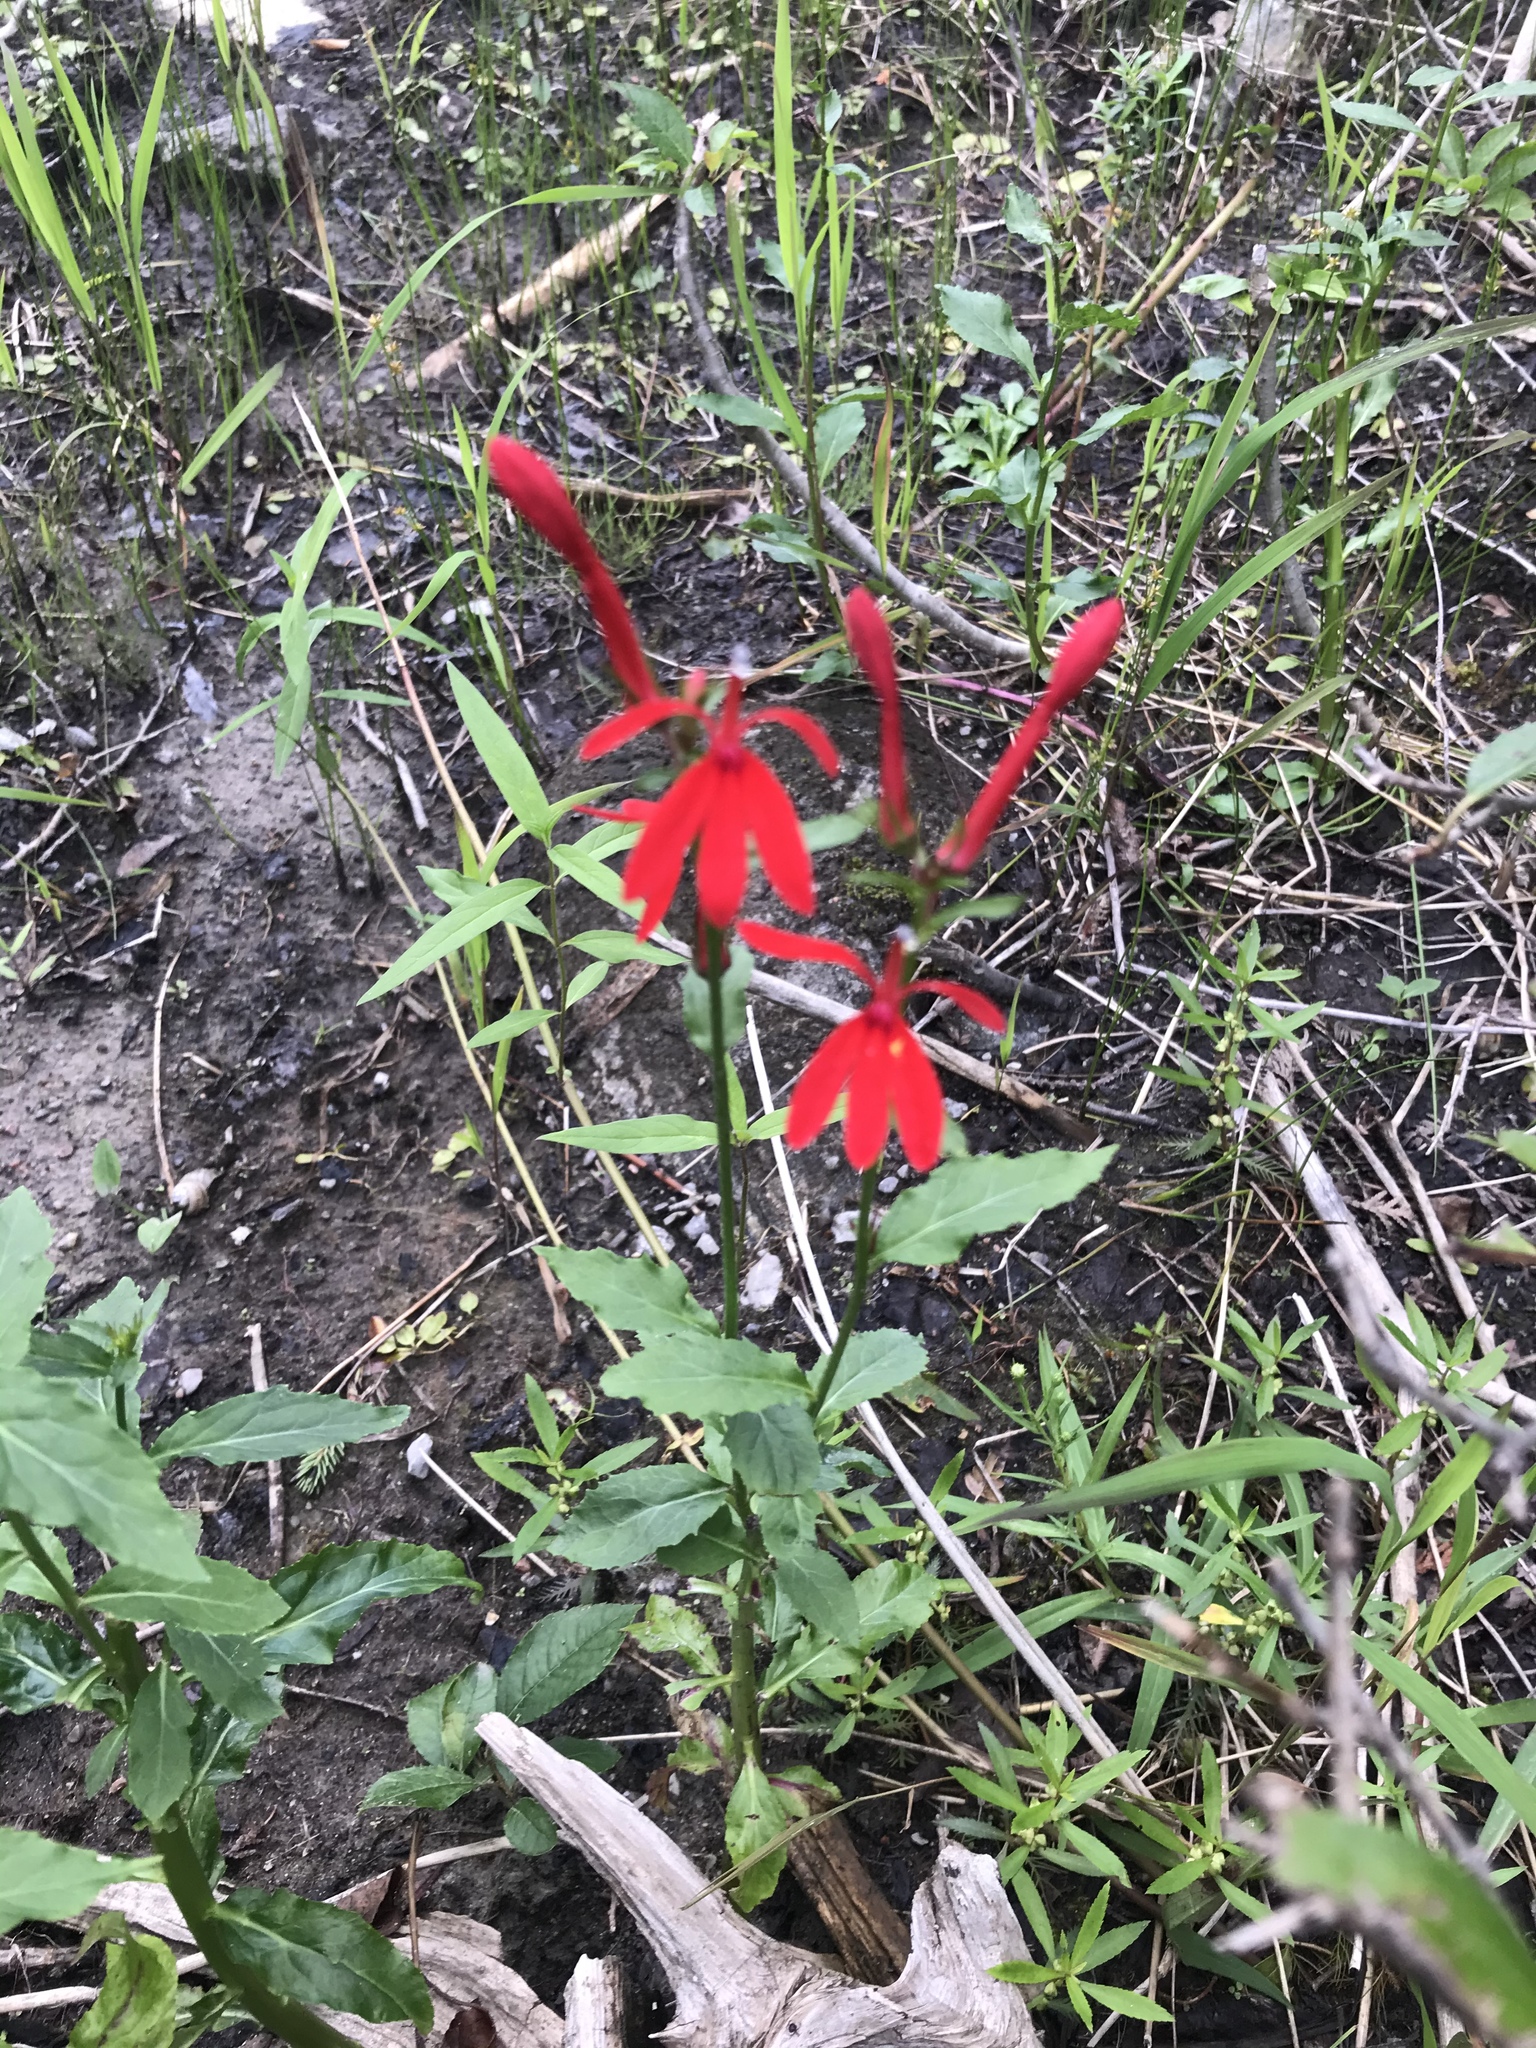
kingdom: Plantae
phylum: Tracheophyta
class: Magnoliopsida
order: Asterales
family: Campanulaceae
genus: Lobelia
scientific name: Lobelia cardinalis
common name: Cardinal flower
